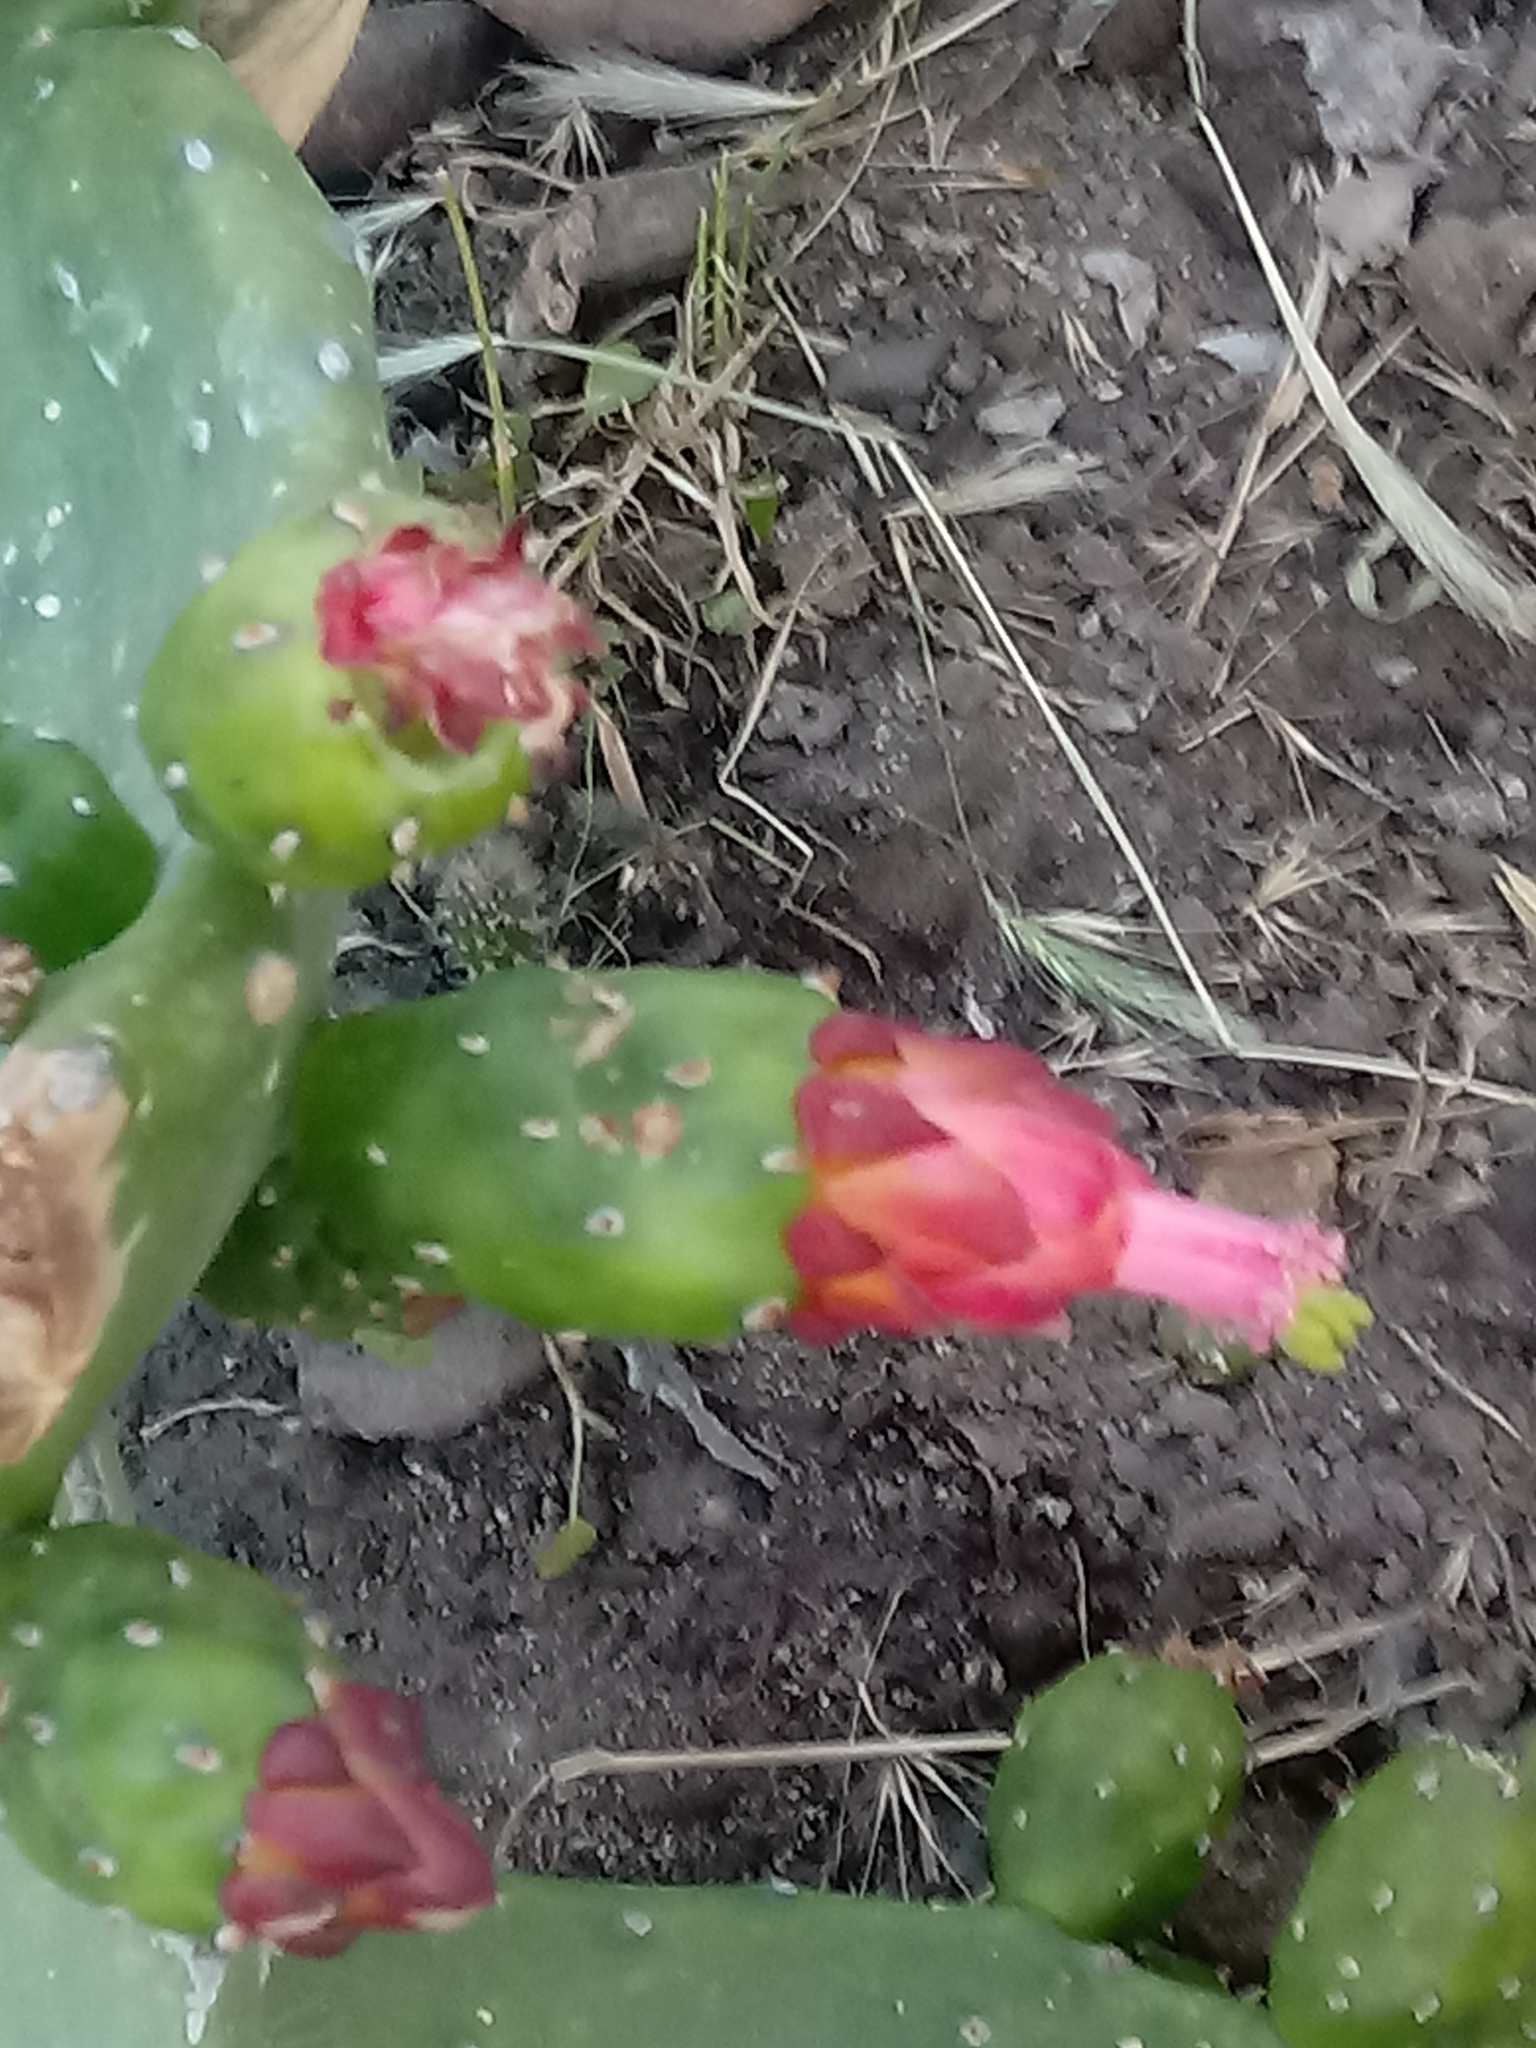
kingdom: Plantae
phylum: Tracheophyta
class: Magnoliopsida
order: Caryophyllales
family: Cactaceae
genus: Opuntia
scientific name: Opuntia cochenillifera
